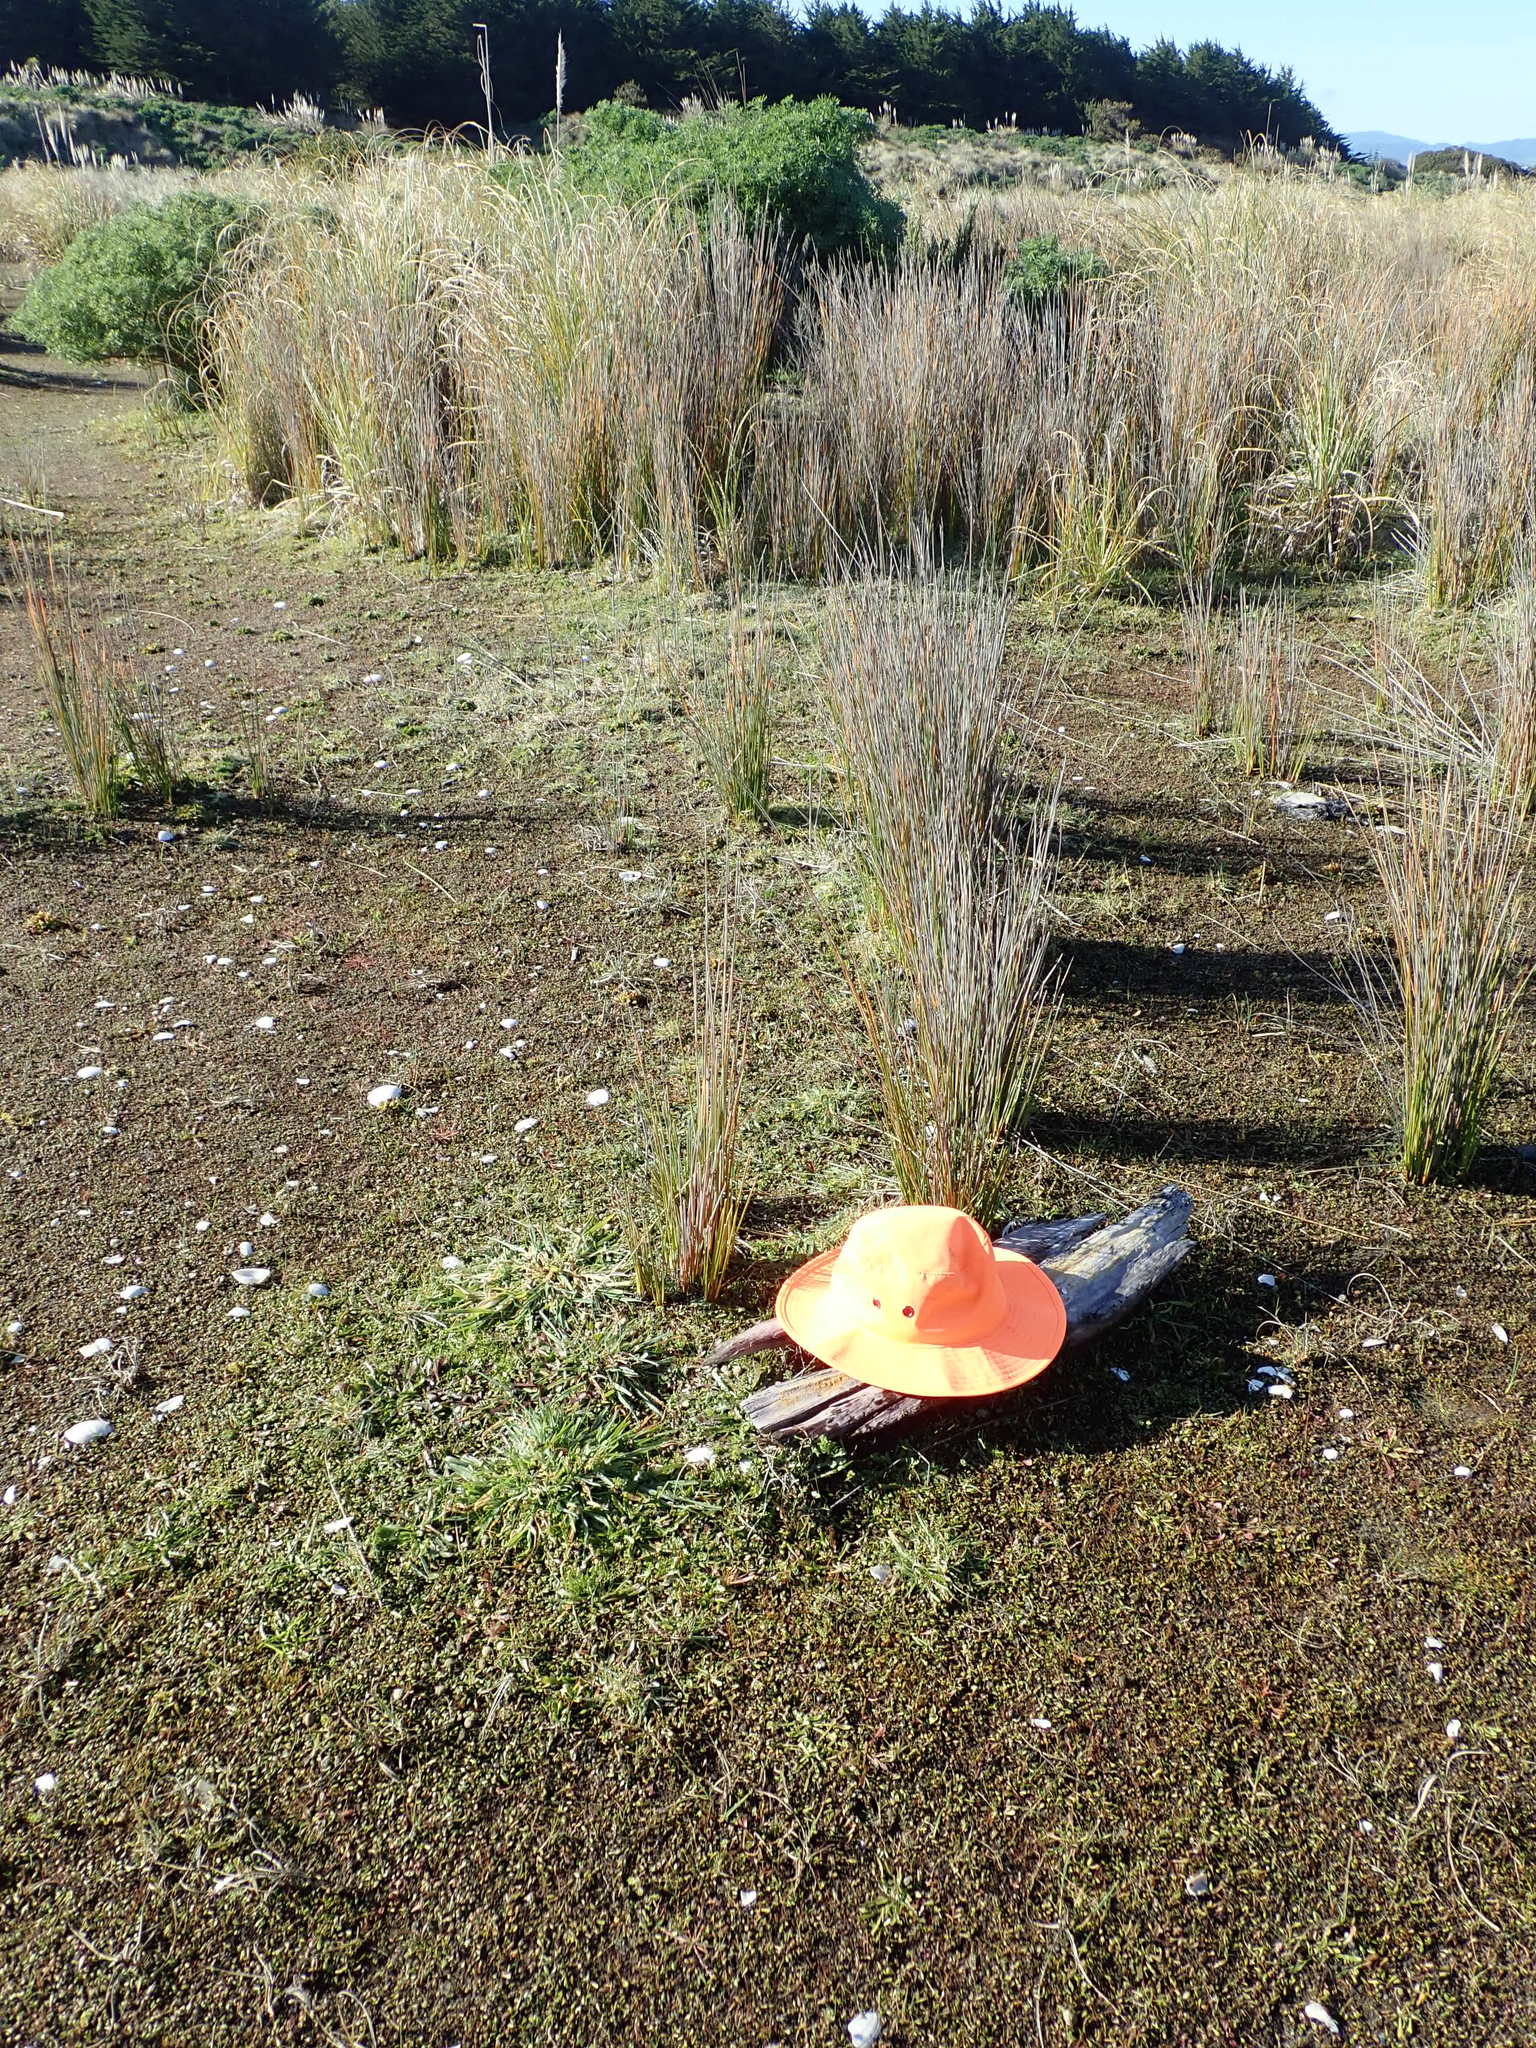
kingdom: Animalia
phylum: Platyhelminthes
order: Tricladida
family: Geoplanidae
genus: Caenoplana
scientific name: Caenoplana coerulea
